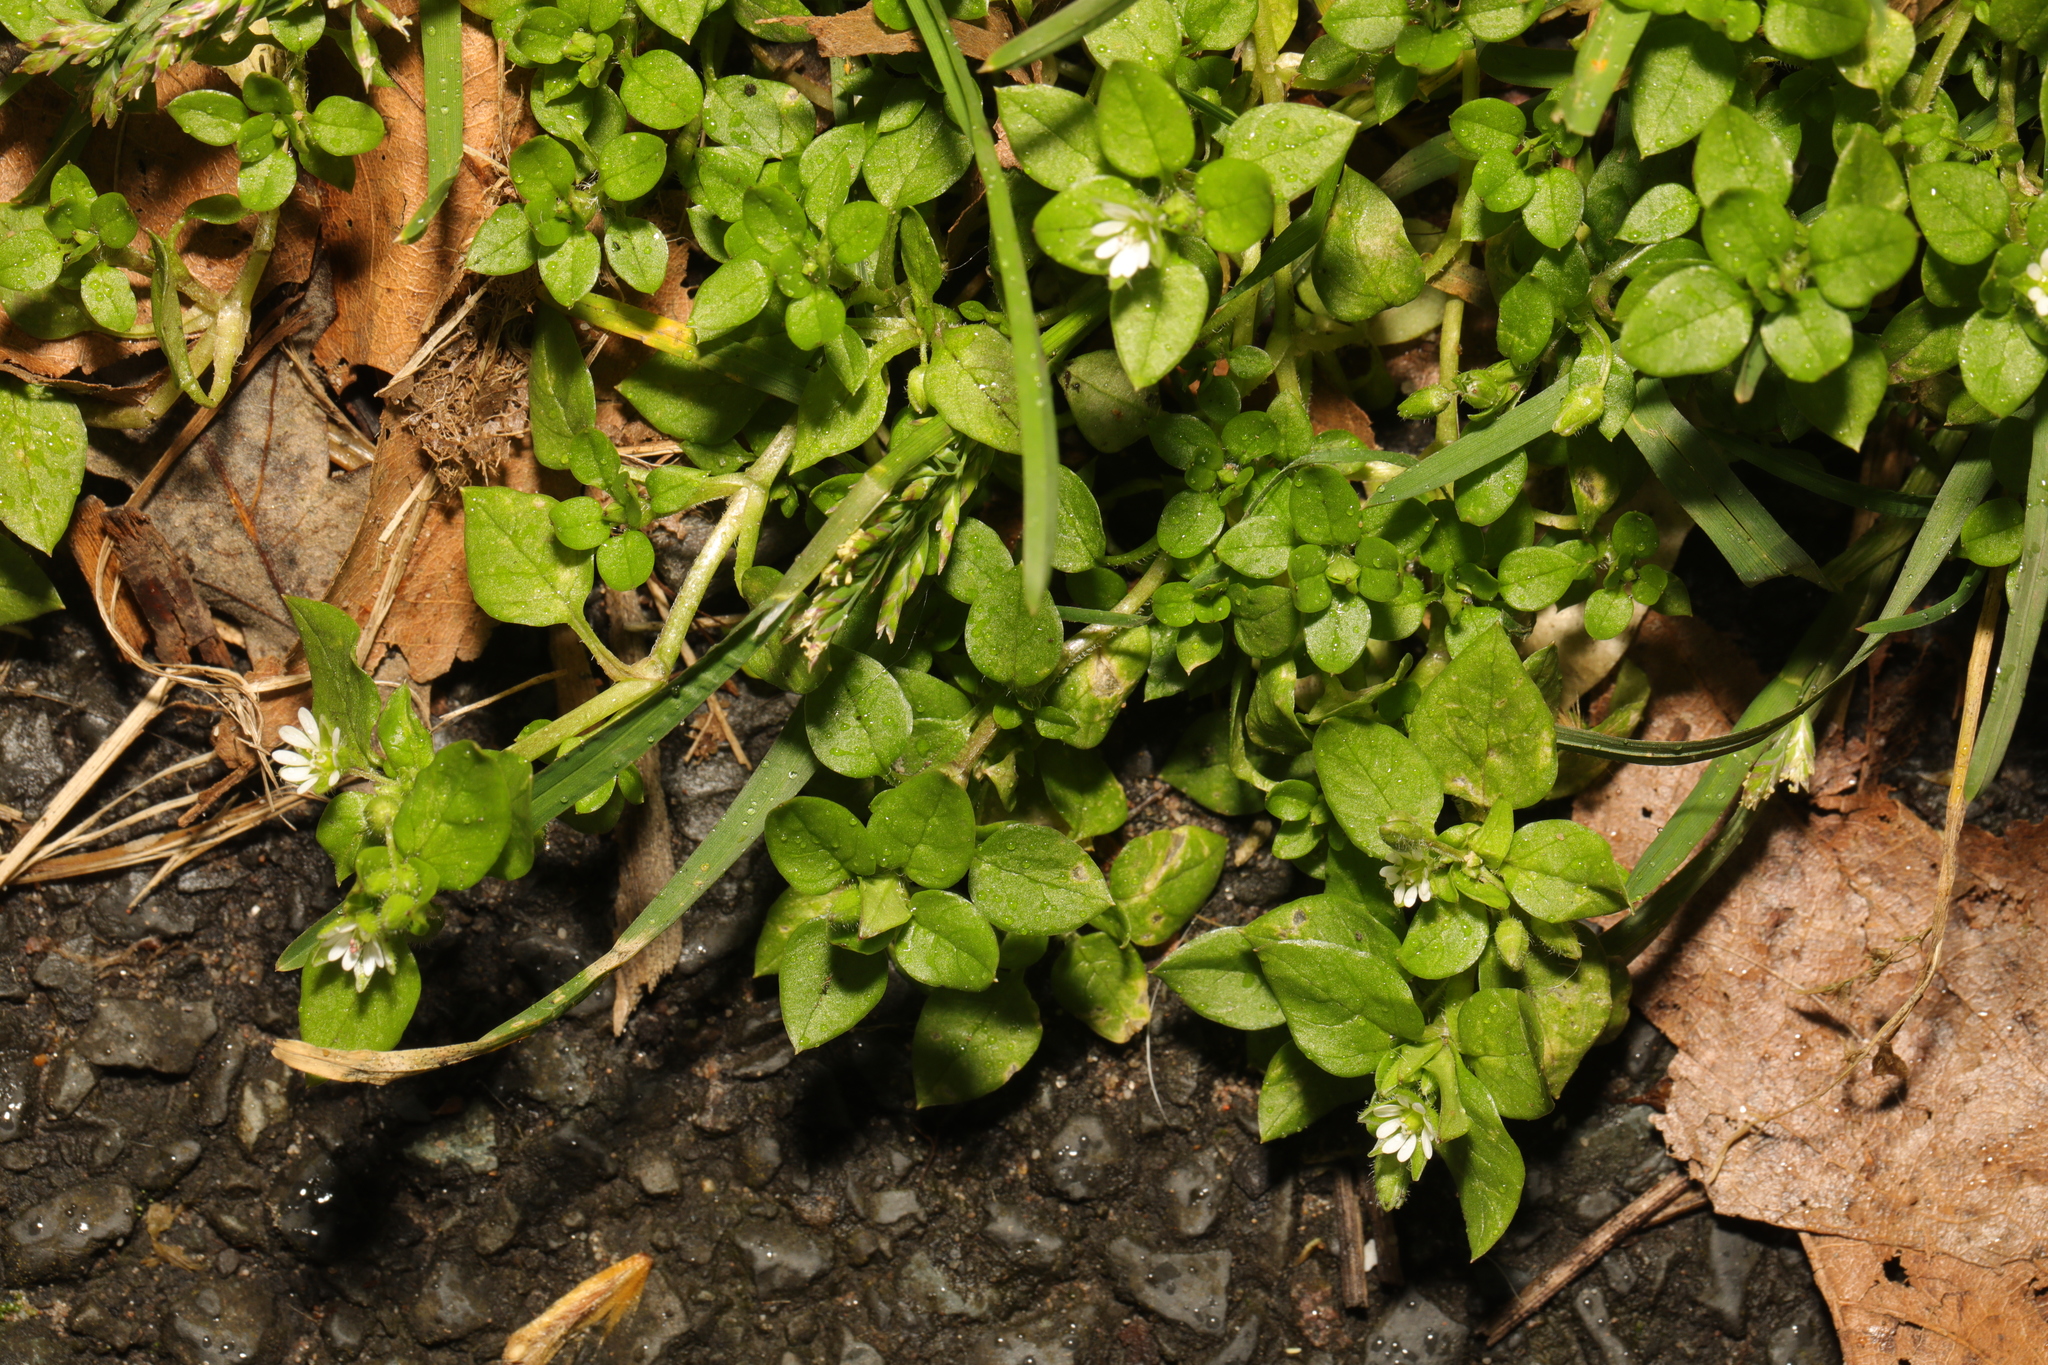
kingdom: Plantae
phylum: Tracheophyta
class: Magnoliopsida
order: Caryophyllales
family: Caryophyllaceae
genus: Stellaria
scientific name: Stellaria media
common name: Common chickweed
